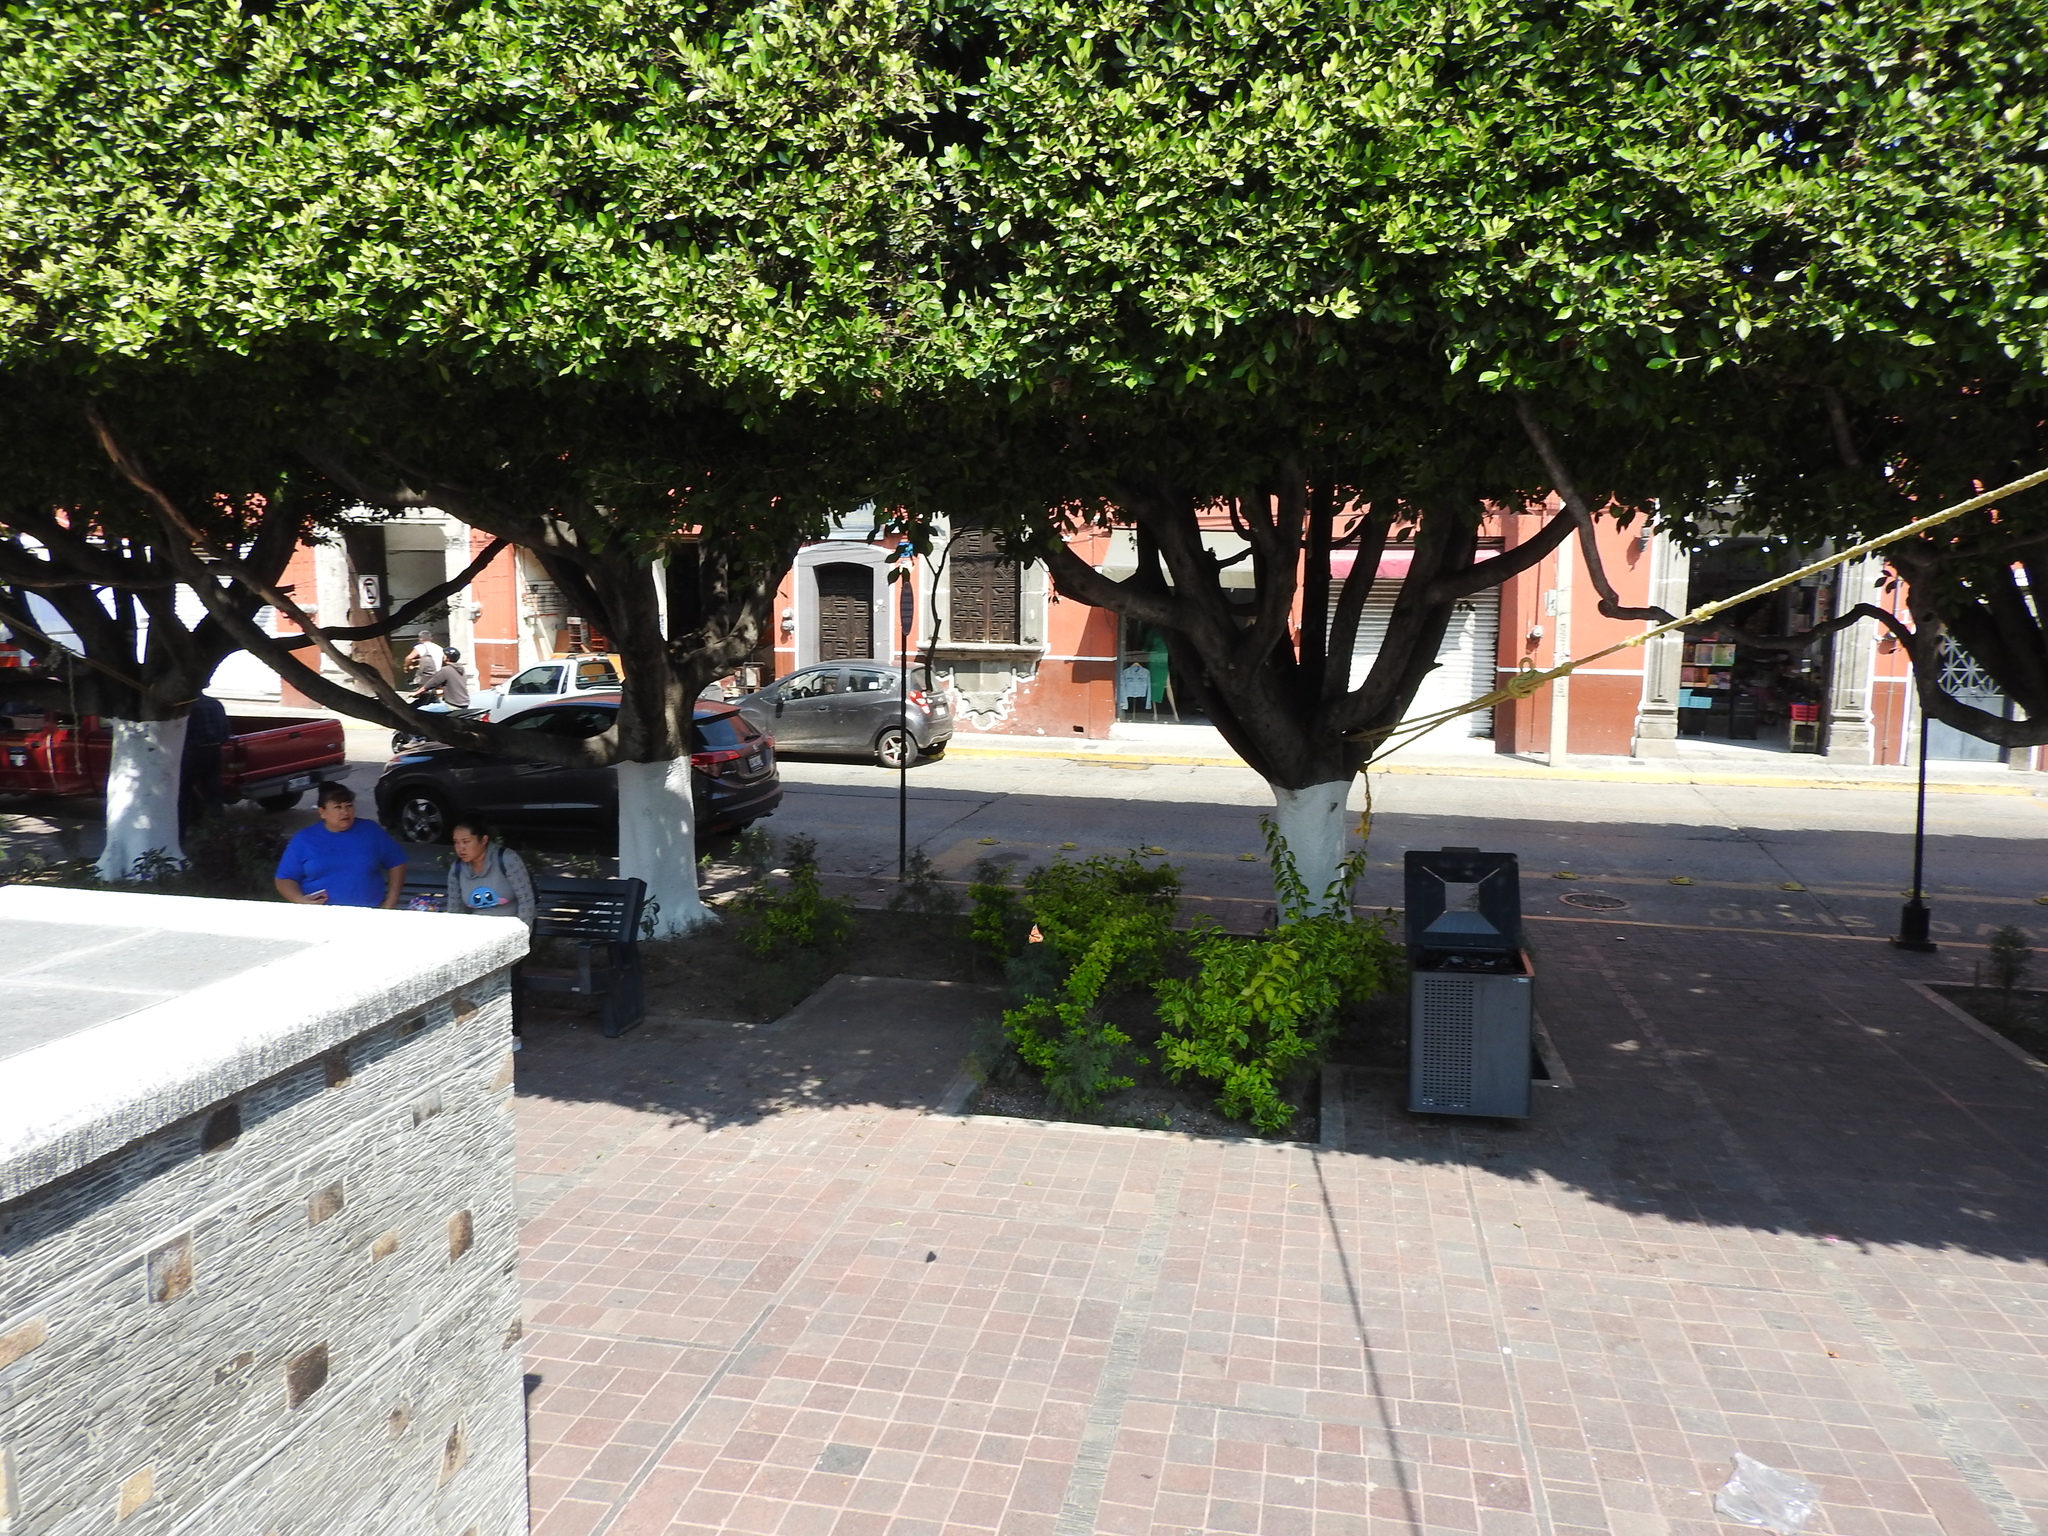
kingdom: Animalia
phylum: Arthropoda
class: Insecta
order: Lepidoptera
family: Nymphalidae
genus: Danaus
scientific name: Danaus plexippus
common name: Monarch
